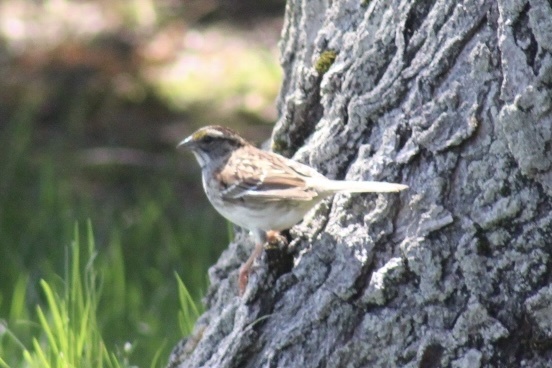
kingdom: Animalia
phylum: Chordata
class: Aves
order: Passeriformes
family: Passerellidae
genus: Zonotrichia
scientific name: Zonotrichia albicollis
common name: White-throated sparrow
